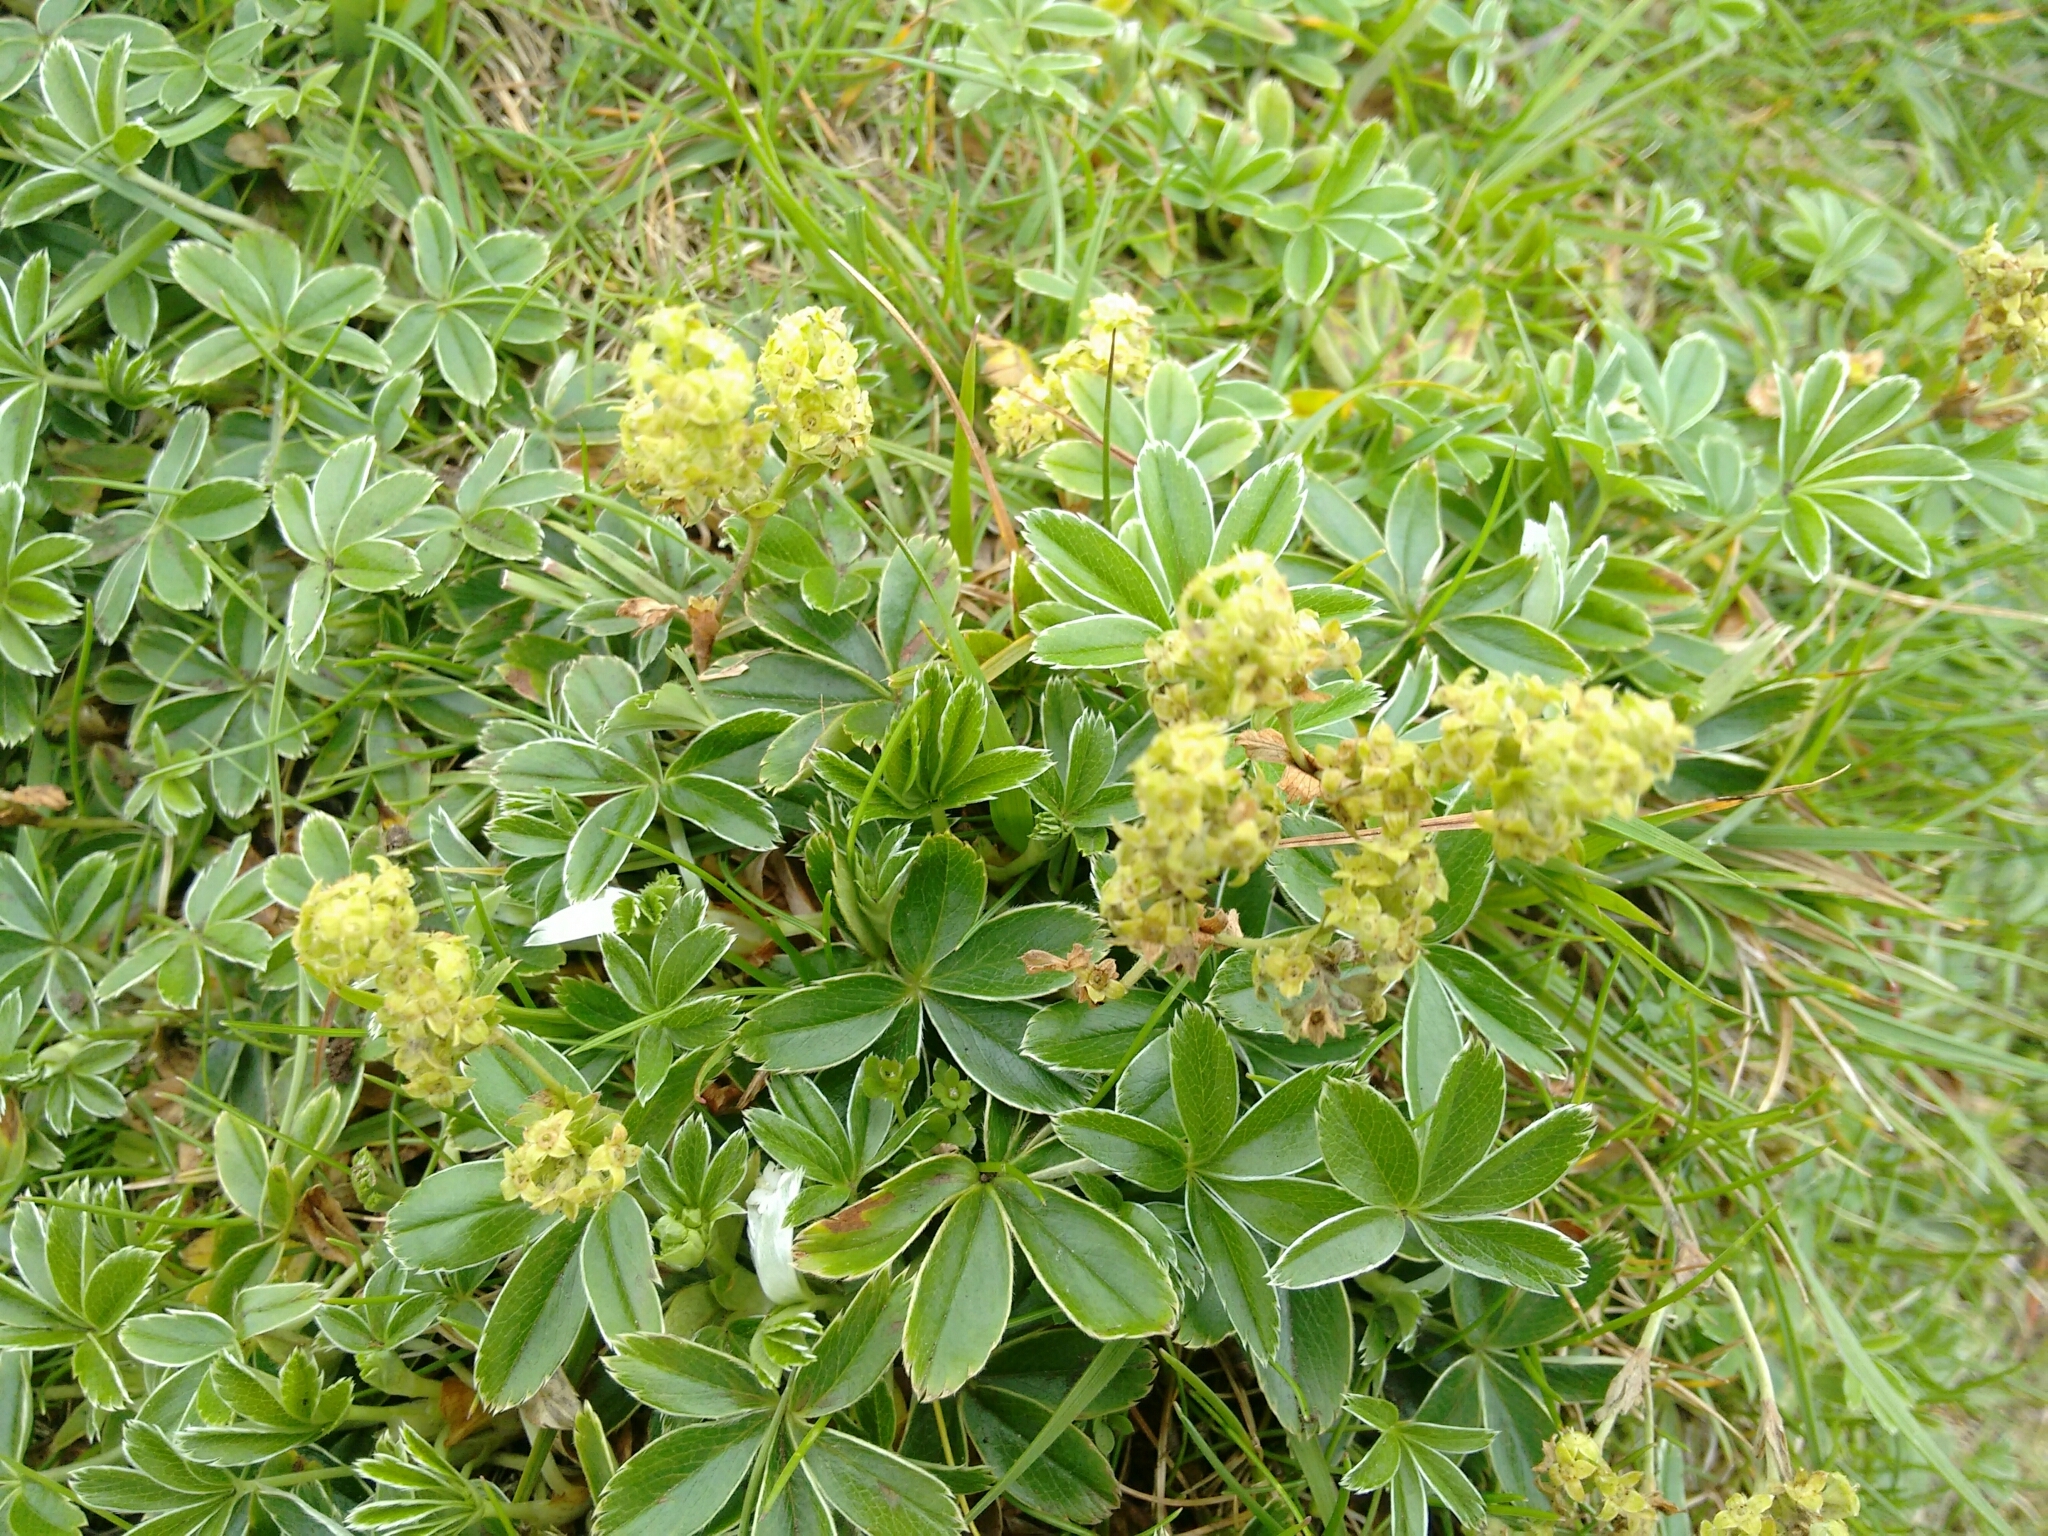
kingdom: Plantae
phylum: Tracheophyta
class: Magnoliopsida
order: Rosales
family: Rosaceae
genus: Alchemilla
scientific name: Alchemilla alpina
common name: Alpine lady's-mantle
